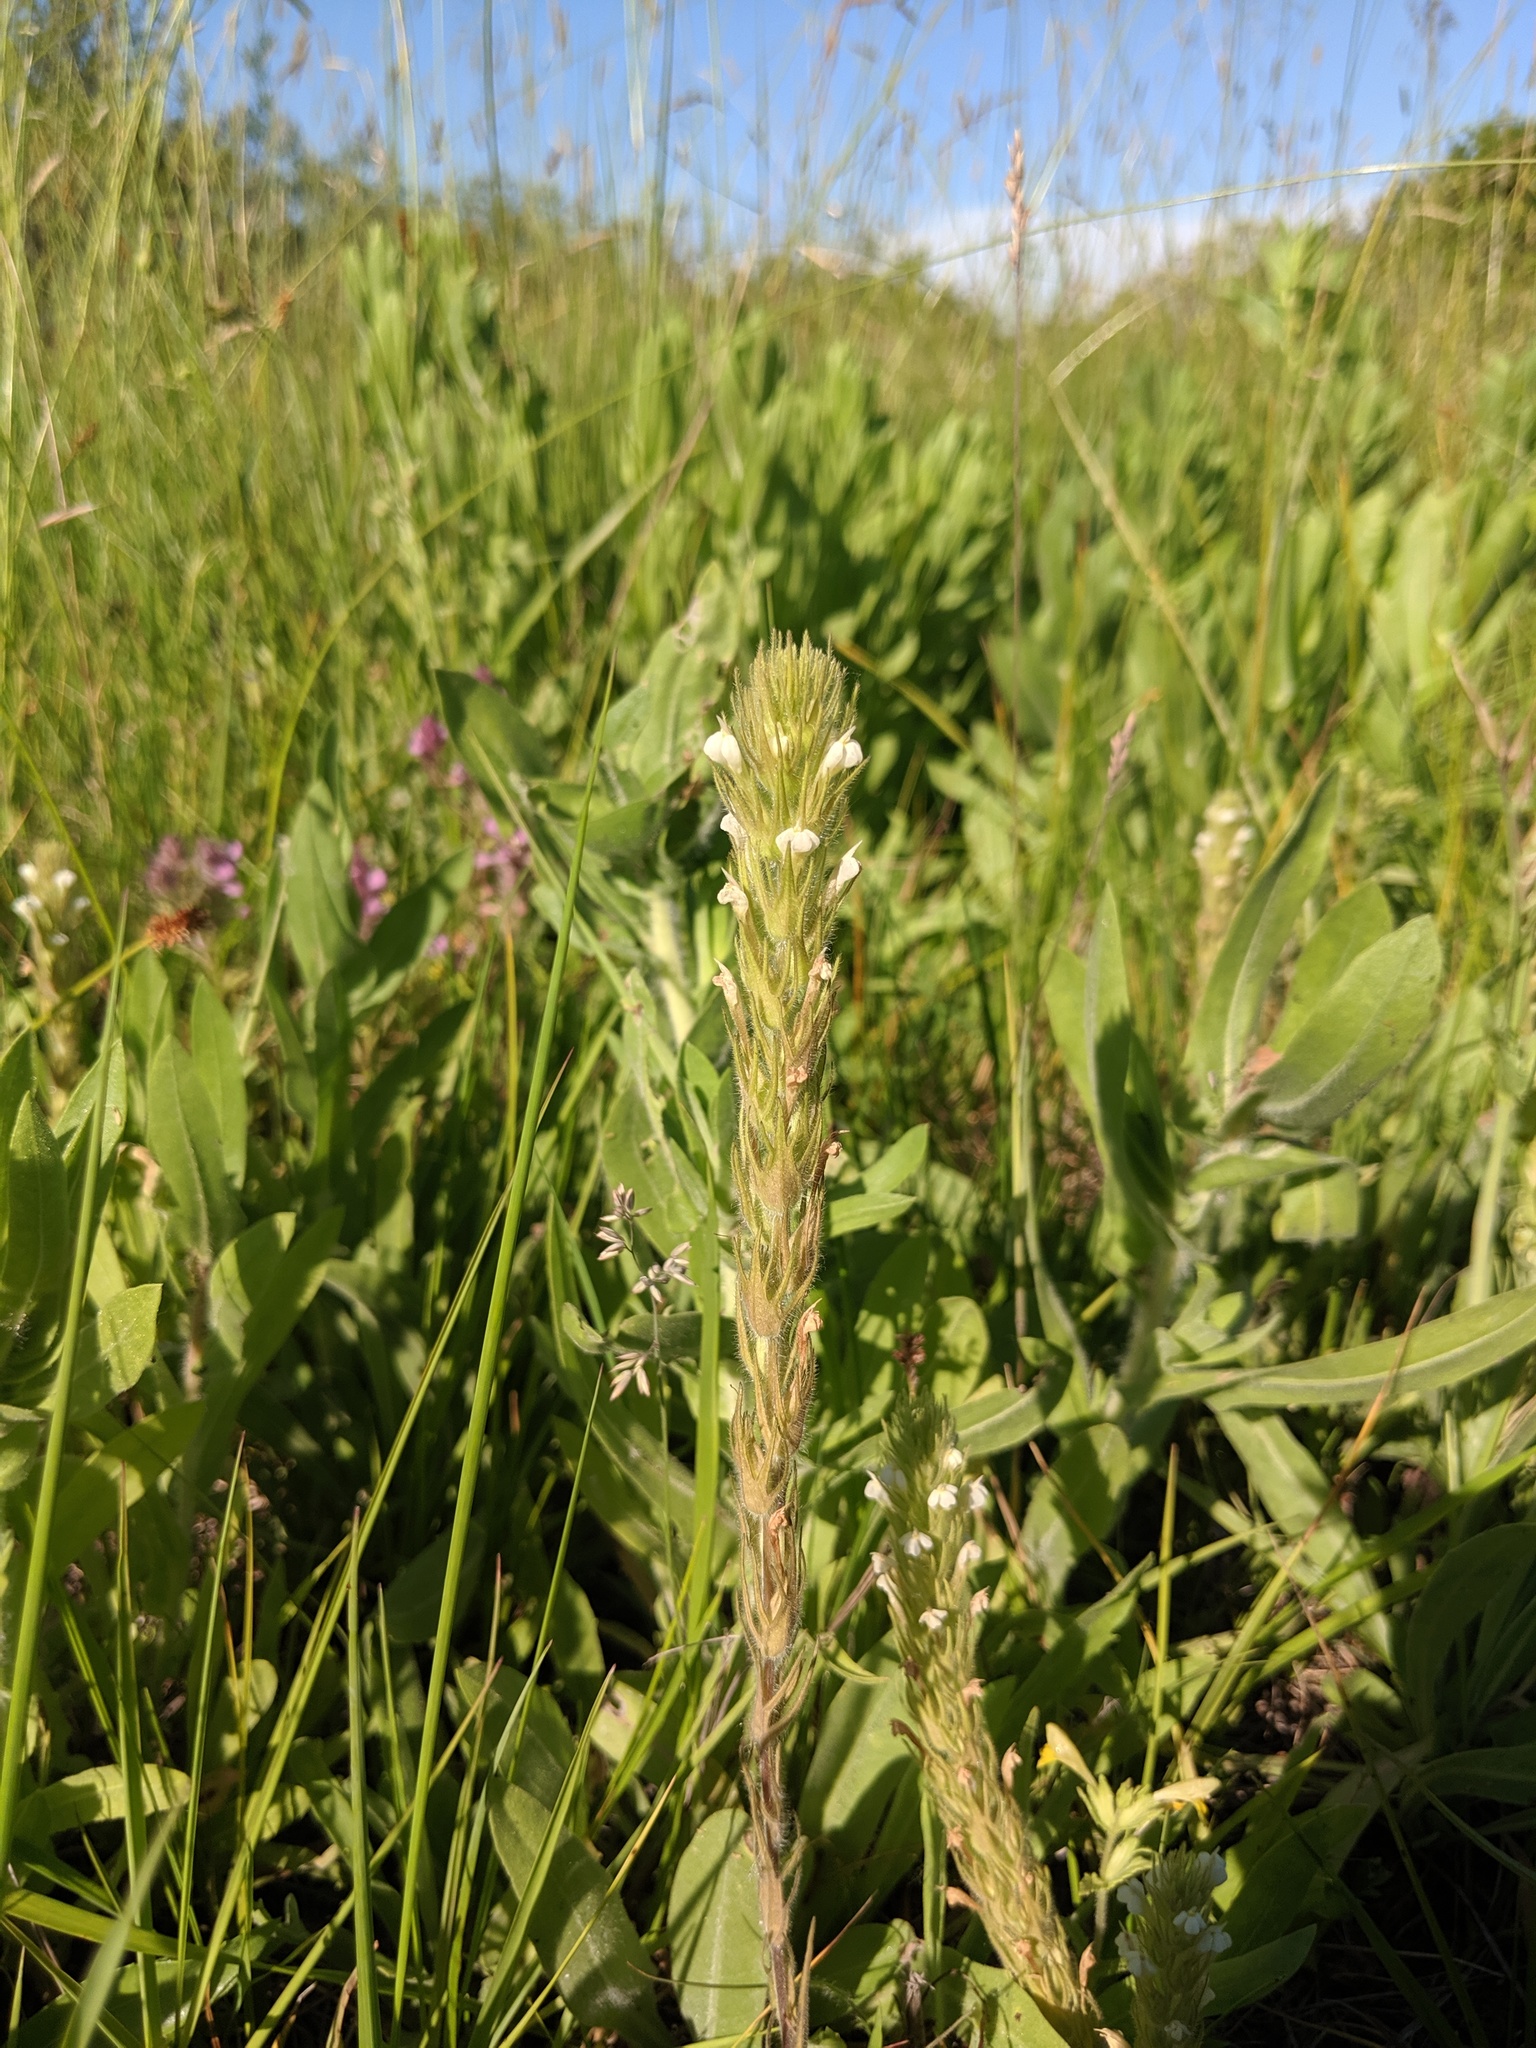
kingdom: Plantae
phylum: Tracheophyta
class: Magnoliopsida
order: Lamiales
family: Orobanchaceae
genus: Castilleja
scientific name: Castilleja tenuis
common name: Hairy indian paintbrush
